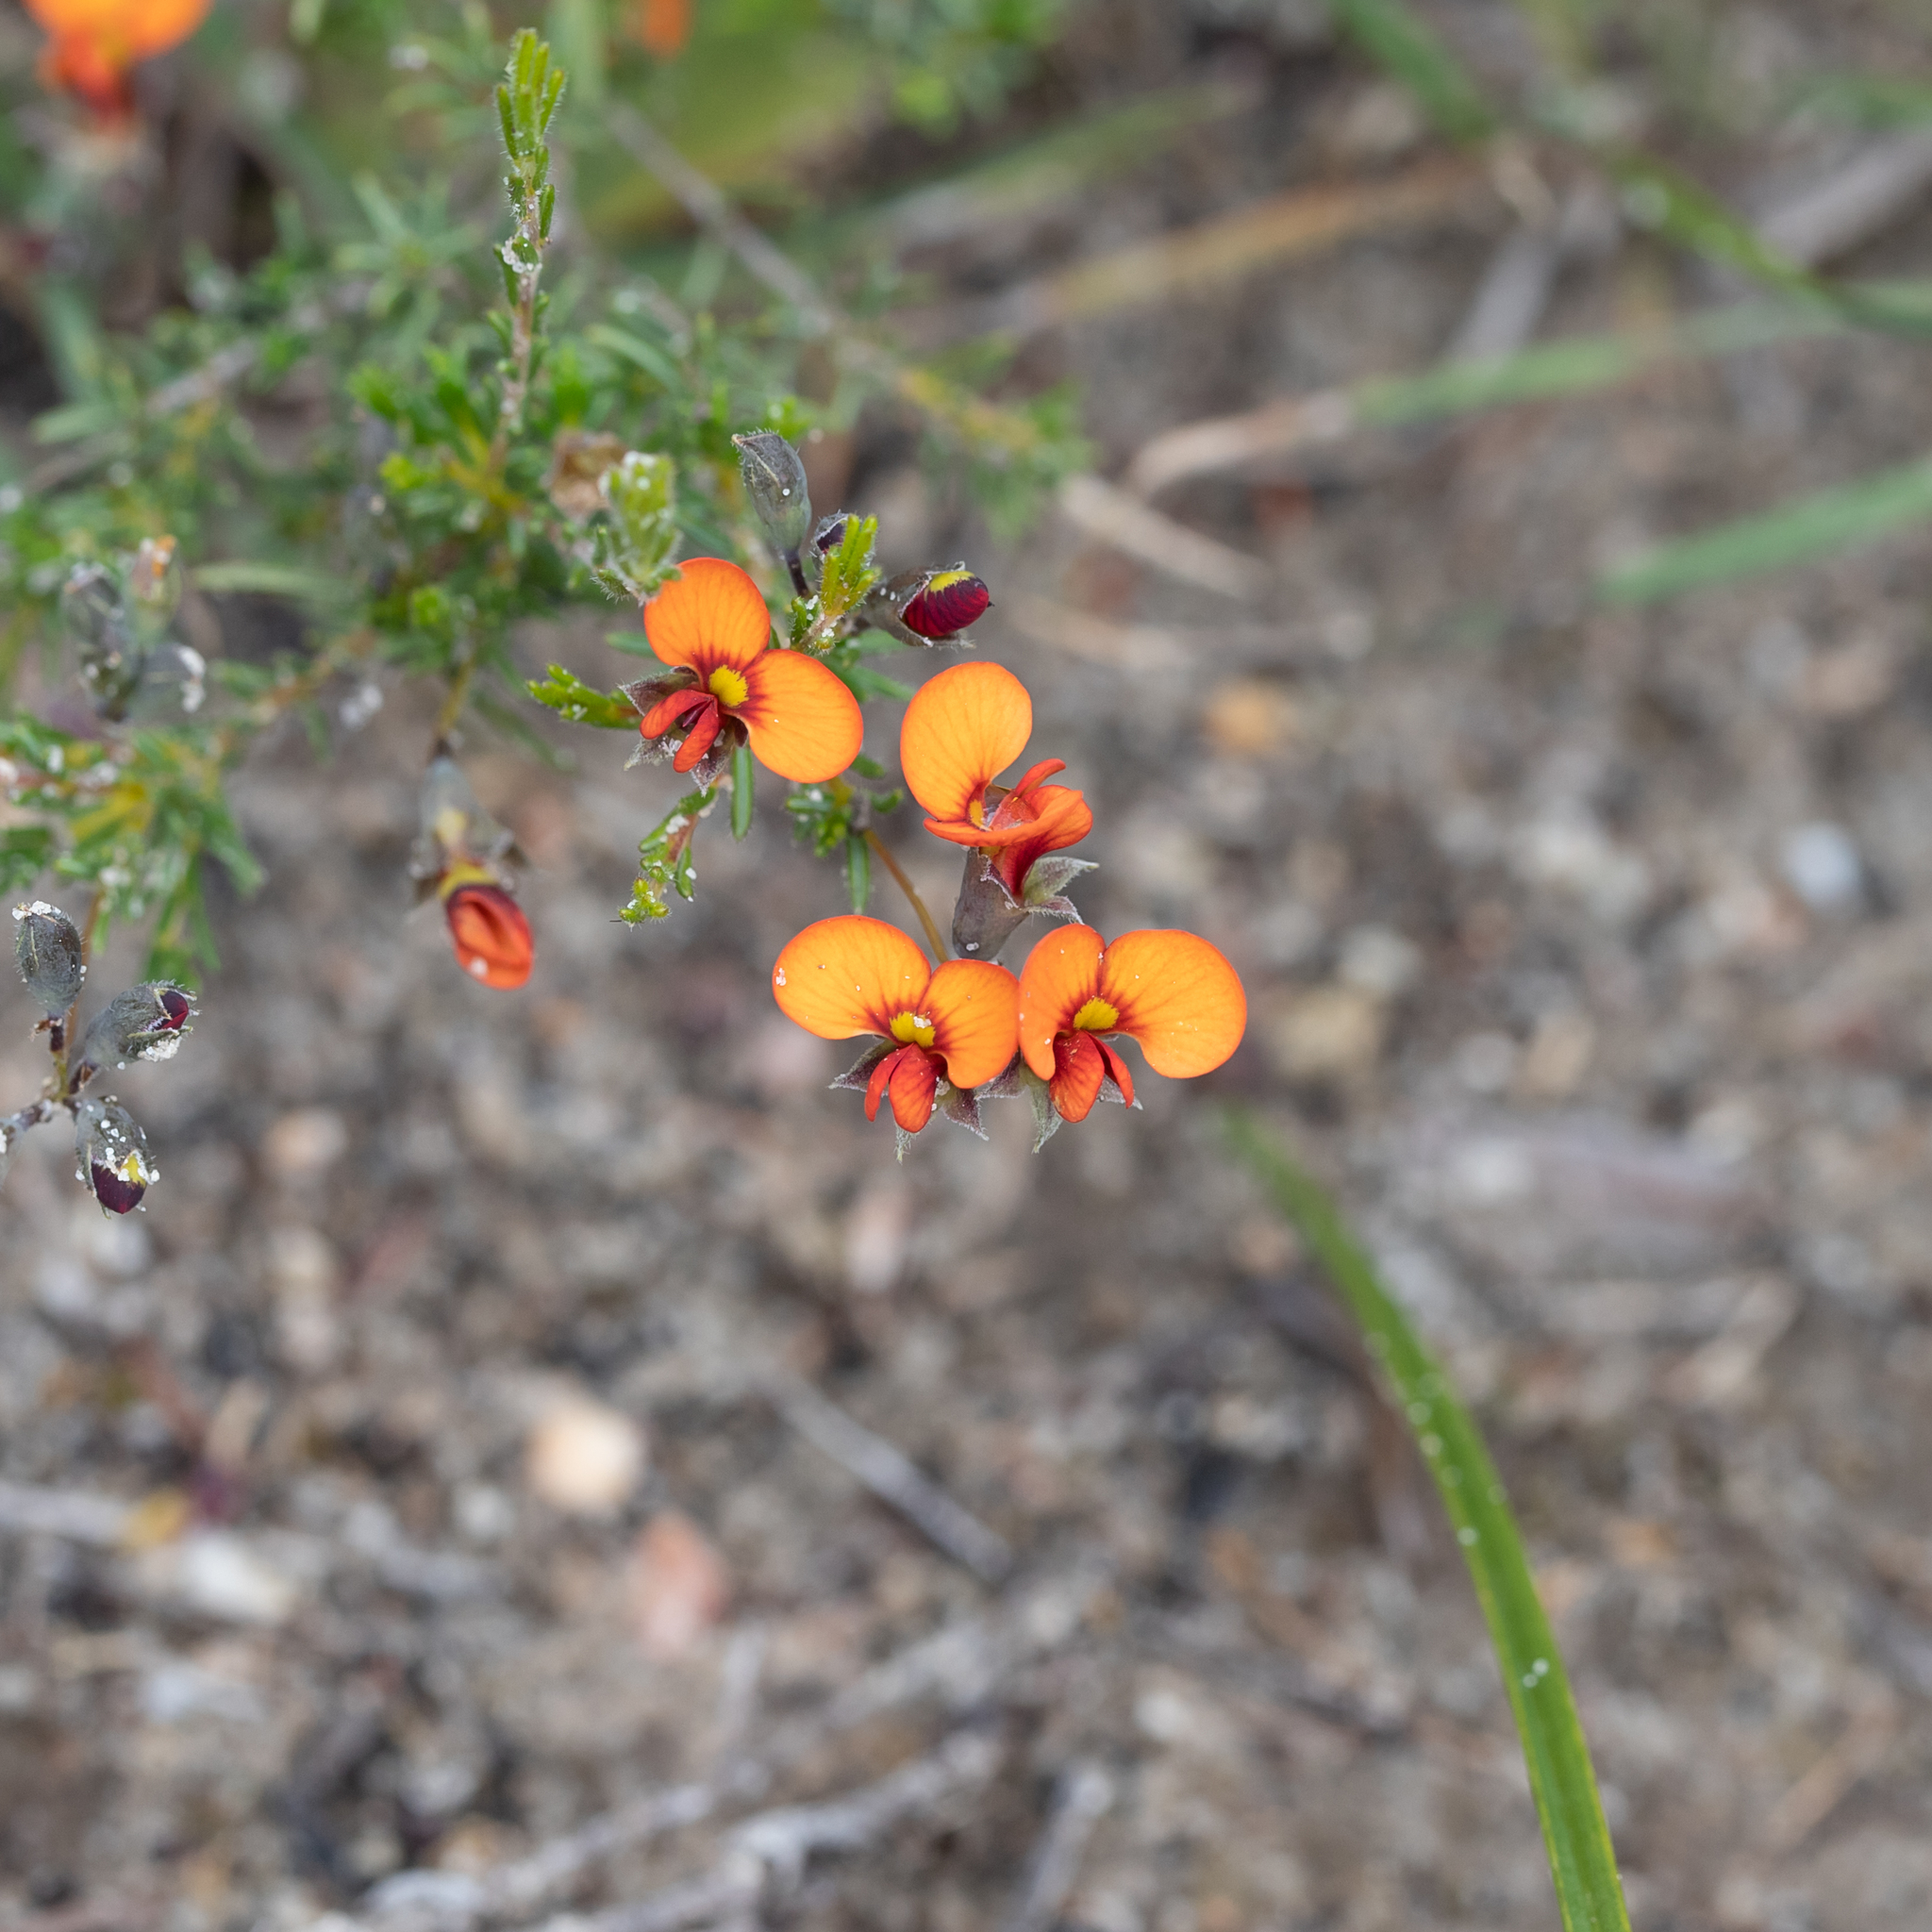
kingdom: Plantae
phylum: Tracheophyta
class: Magnoliopsida
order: Fabales
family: Fabaceae
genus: Dillwynia
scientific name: Dillwynia hispida
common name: Red parrot-pea
